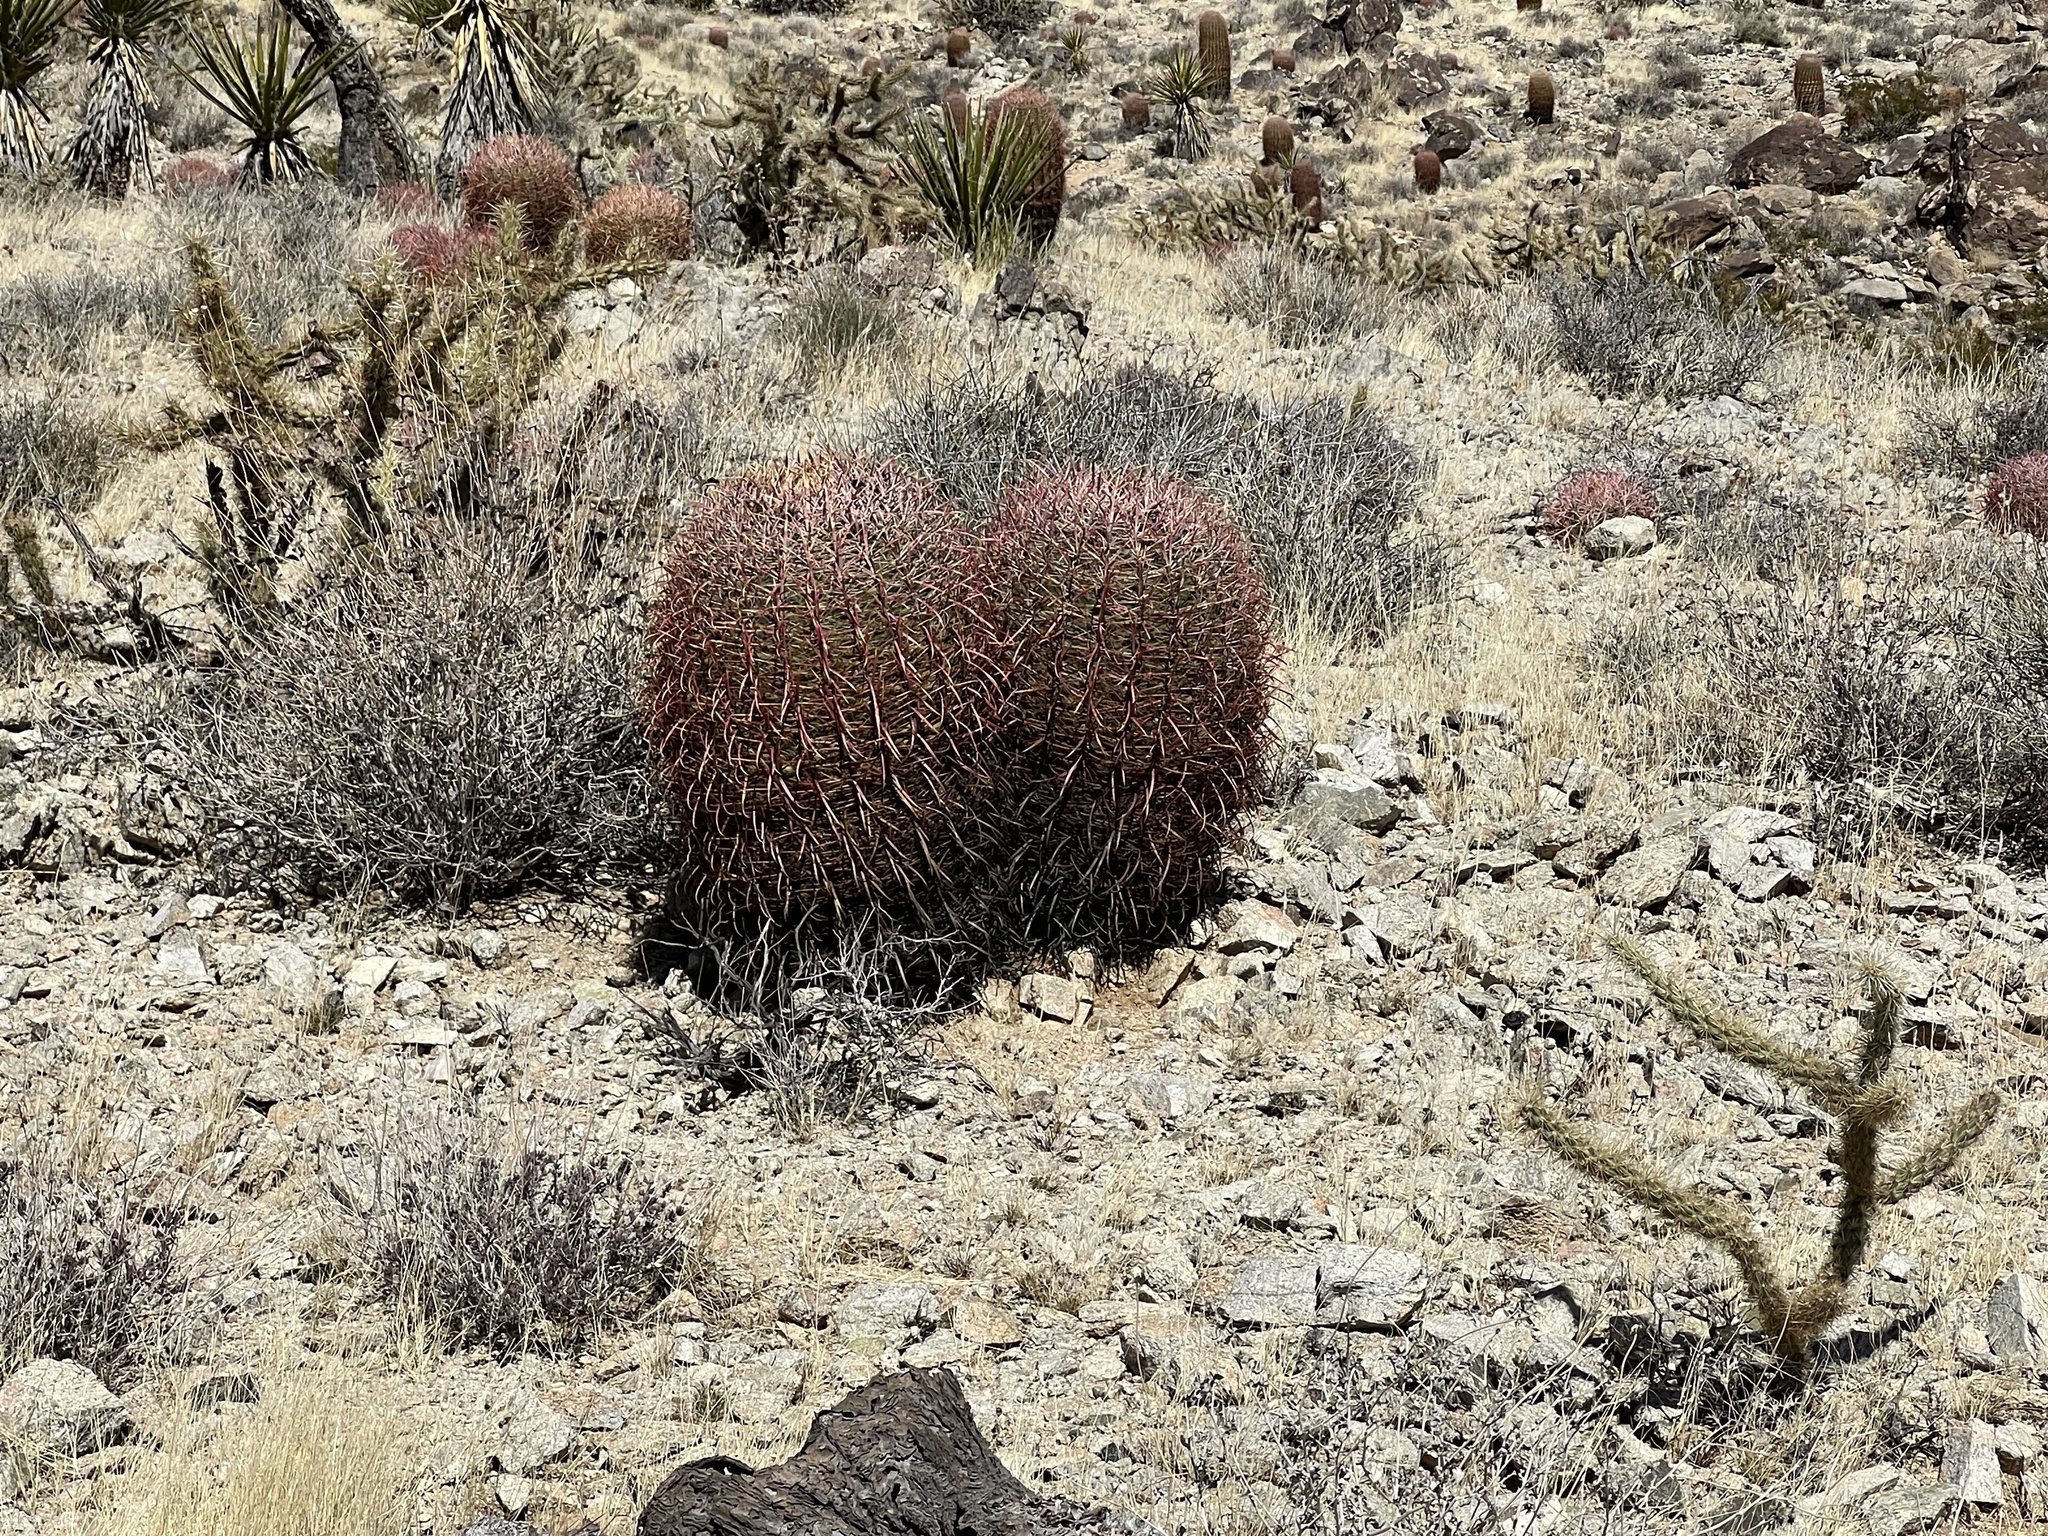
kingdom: Plantae
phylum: Tracheophyta
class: Magnoliopsida
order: Caryophyllales
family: Cactaceae
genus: Ferocactus
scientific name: Ferocactus cylindraceus
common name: California barrel cactus
